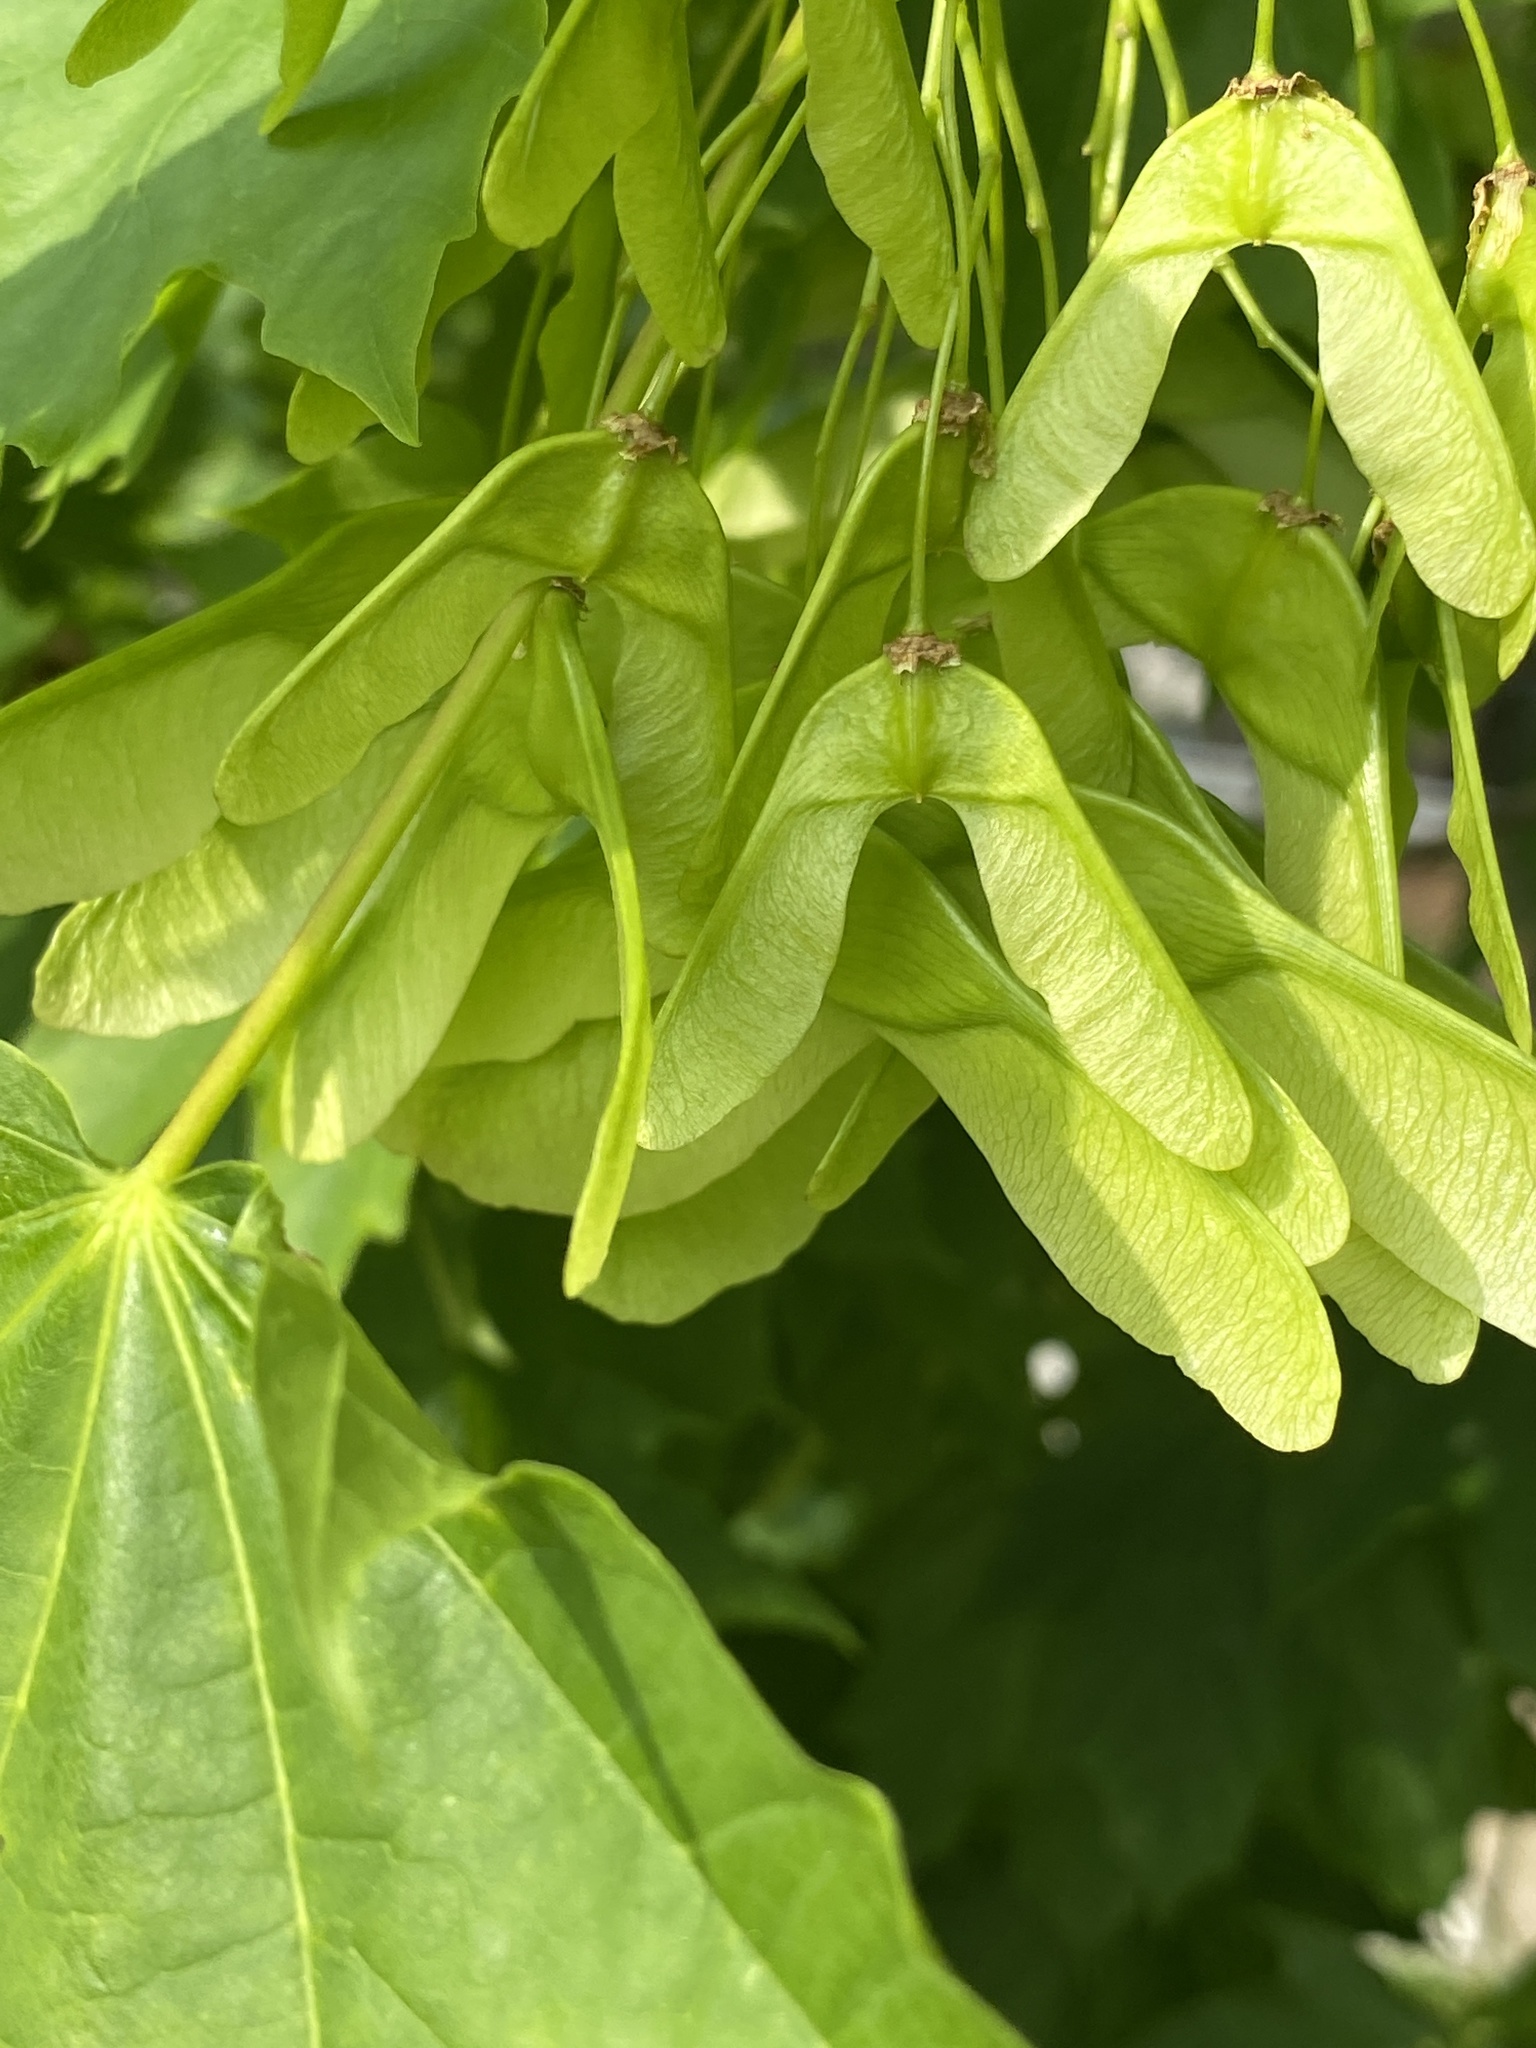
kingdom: Plantae
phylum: Tracheophyta
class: Magnoliopsida
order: Sapindales
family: Sapindaceae
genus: Acer
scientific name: Acer platanoides
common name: Norway maple
